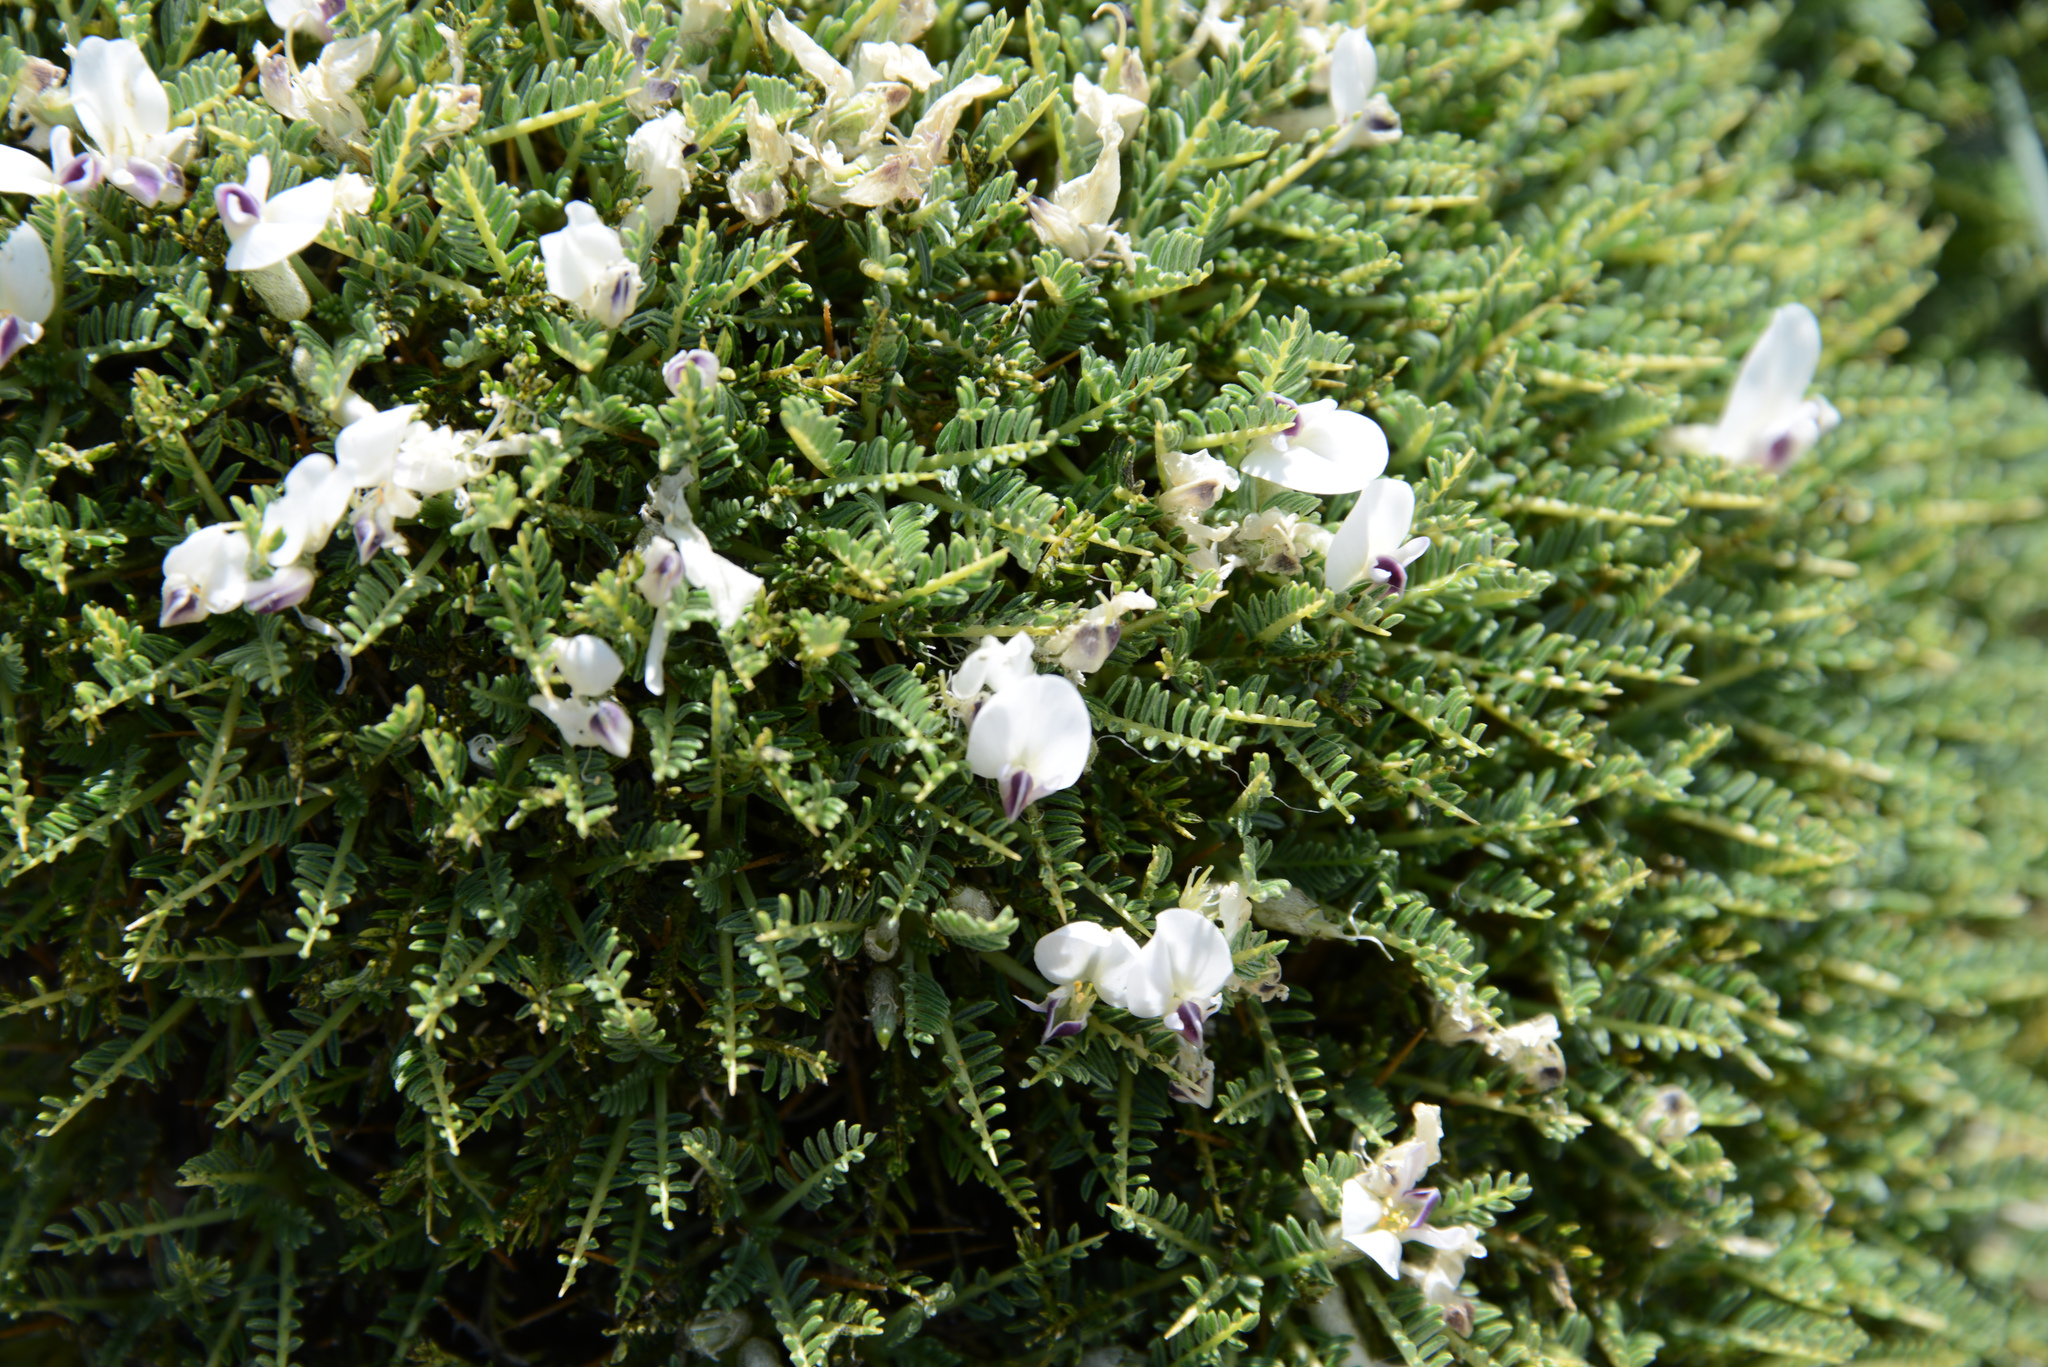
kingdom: Plantae
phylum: Tracheophyta
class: Magnoliopsida
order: Fabales
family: Fabaceae
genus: Astragalus
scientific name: Astragalus angustifolius
